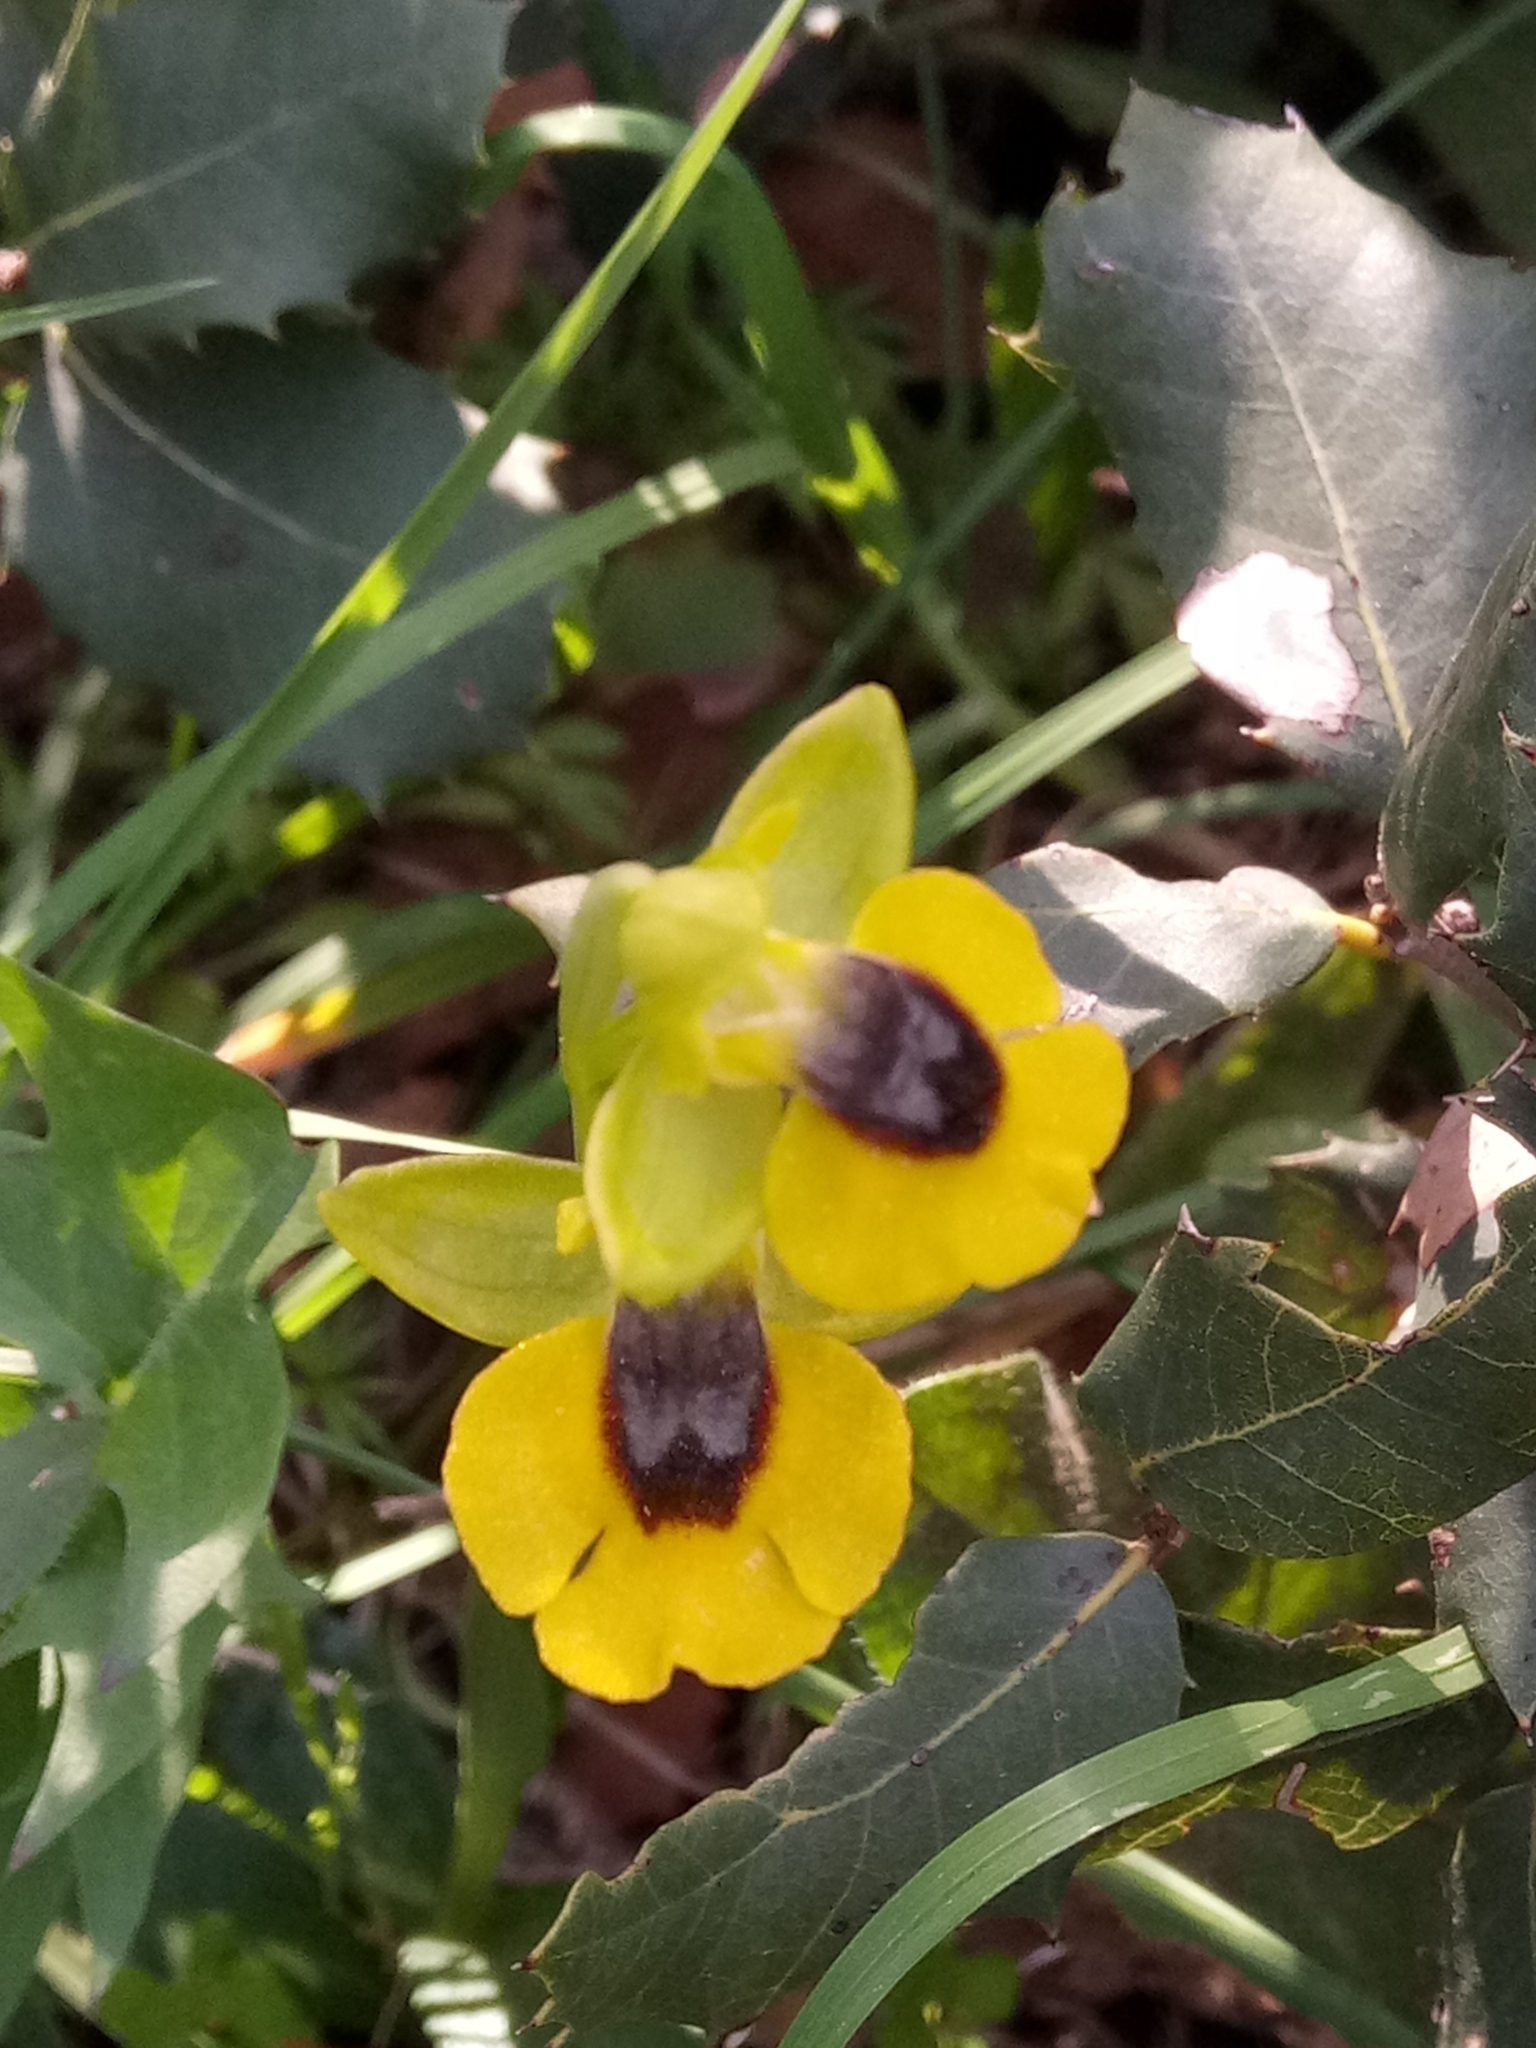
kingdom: Plantae
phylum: Tracheophyta
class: Liliopsida
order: Asparagales
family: Orchidaceae
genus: Ophrys
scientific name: Ophrys lutea
